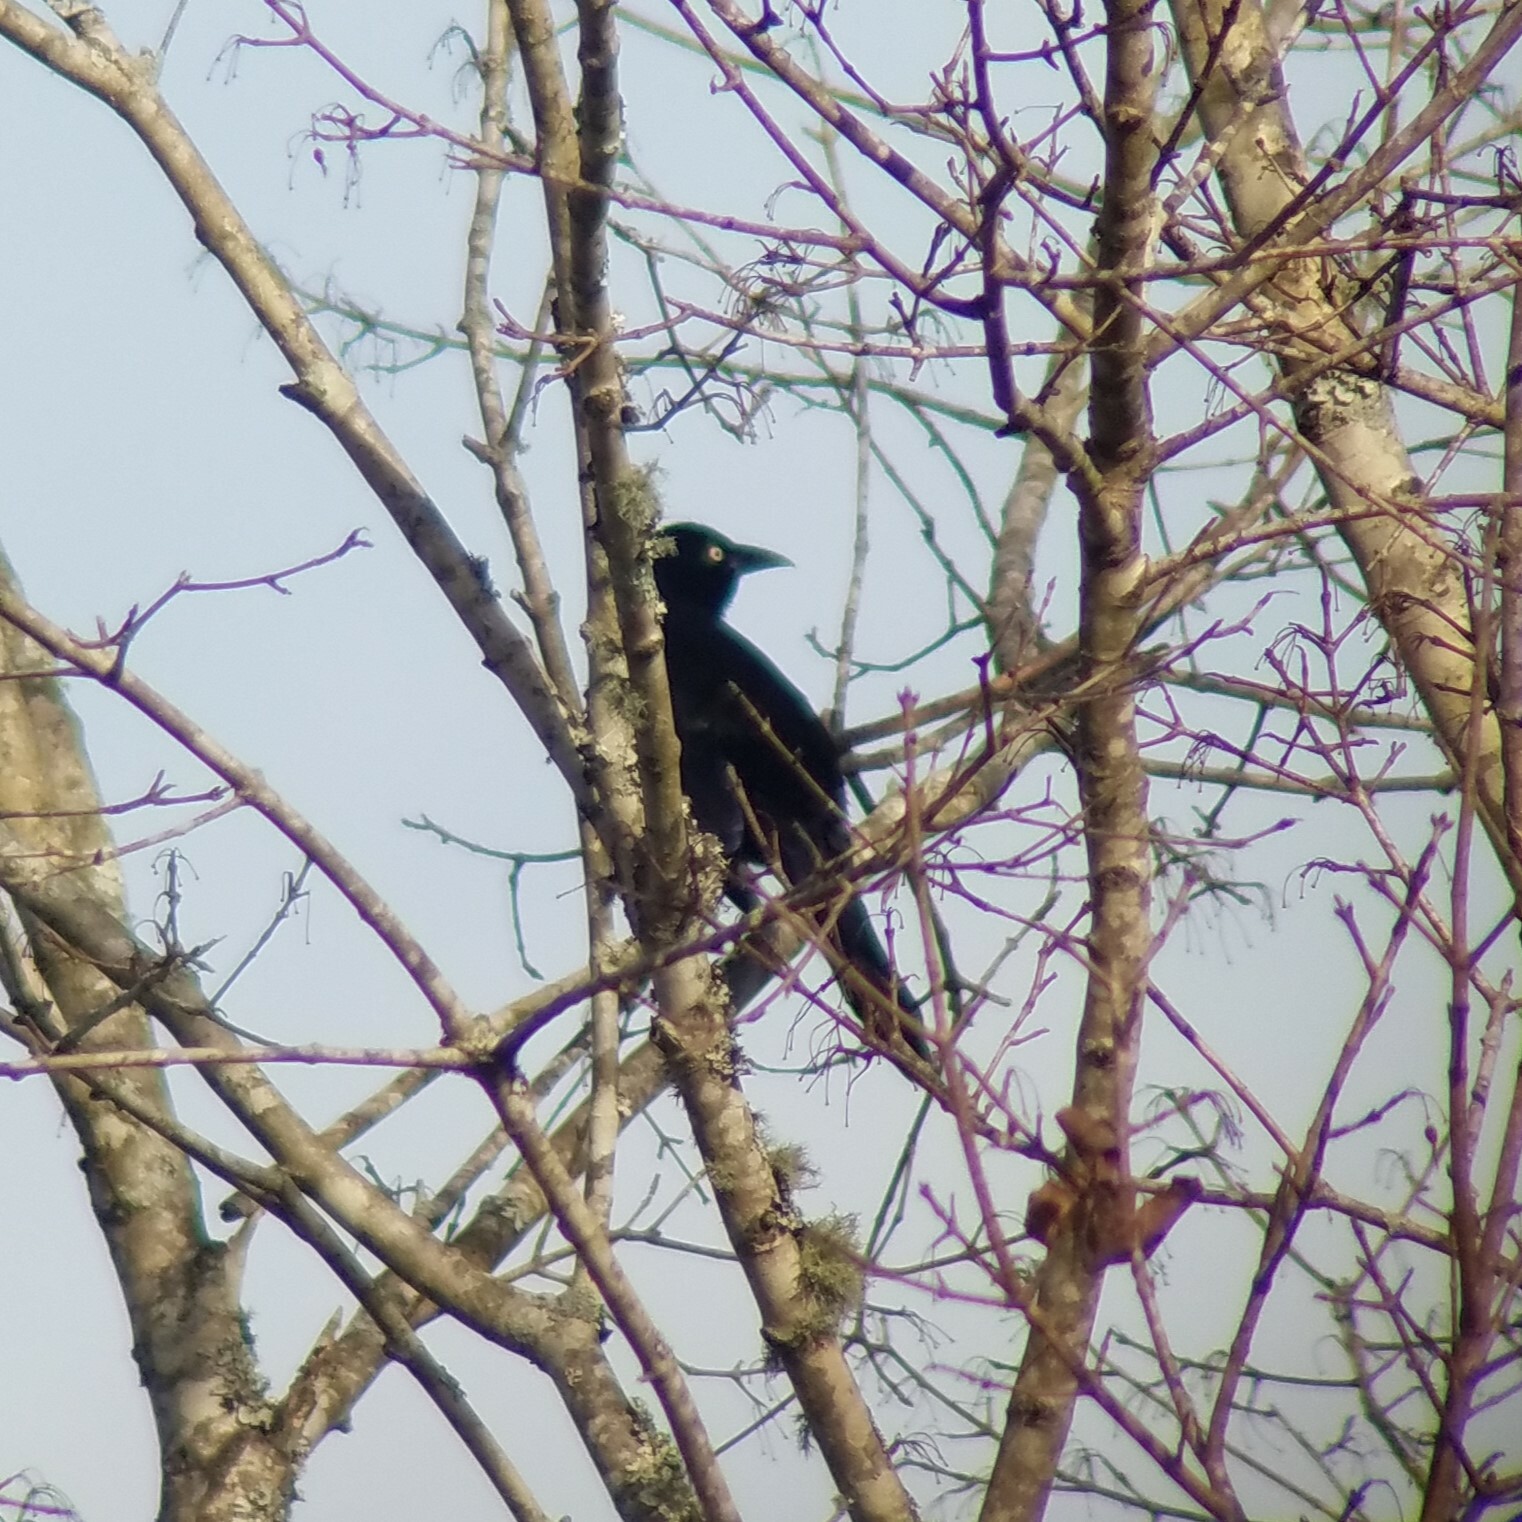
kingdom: Animalia
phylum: Chordata
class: Aves
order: Passeriformes
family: Icteridae
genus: Quiscalus
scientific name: Quiscalus quiscula
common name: Common grackle
